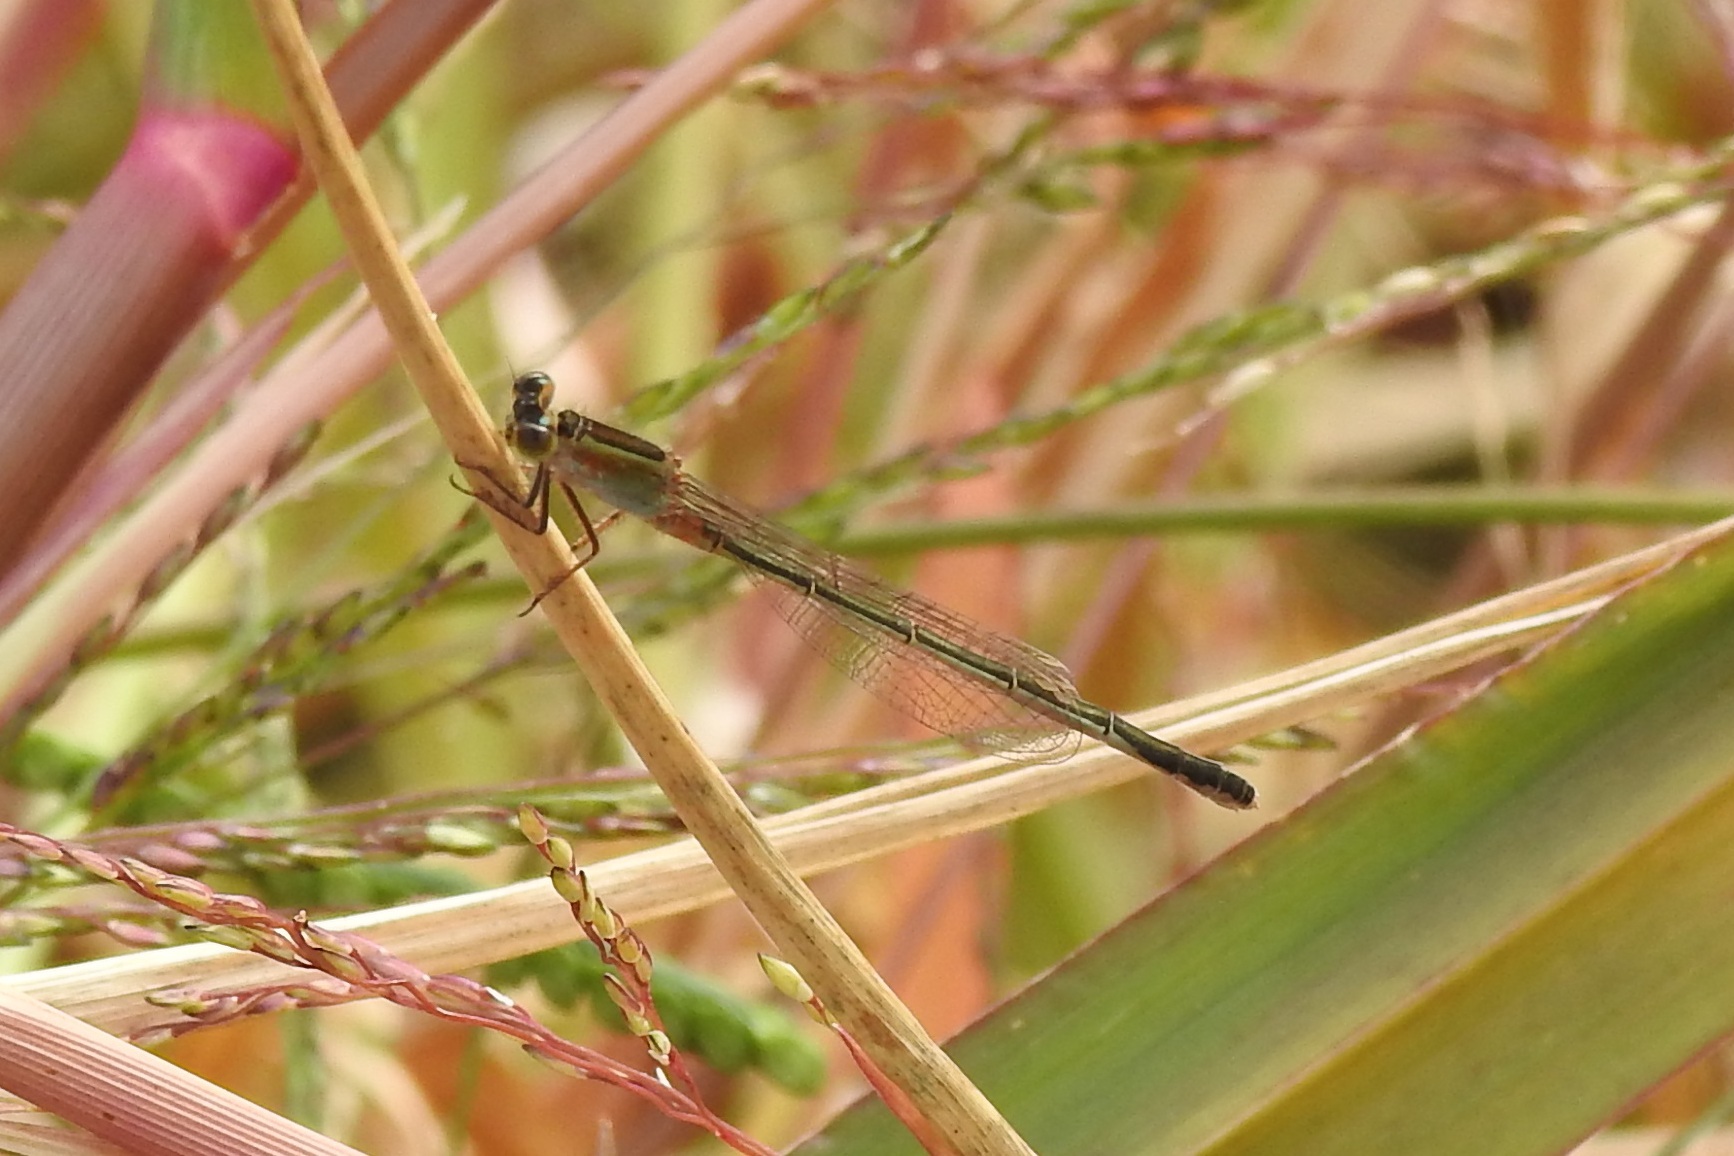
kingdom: Animalia
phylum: Arthropoda
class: Insecta
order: Odonata
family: Coenagrionidae
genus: Ischnura
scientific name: Ischnura ramburii
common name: Rambur's forktail
